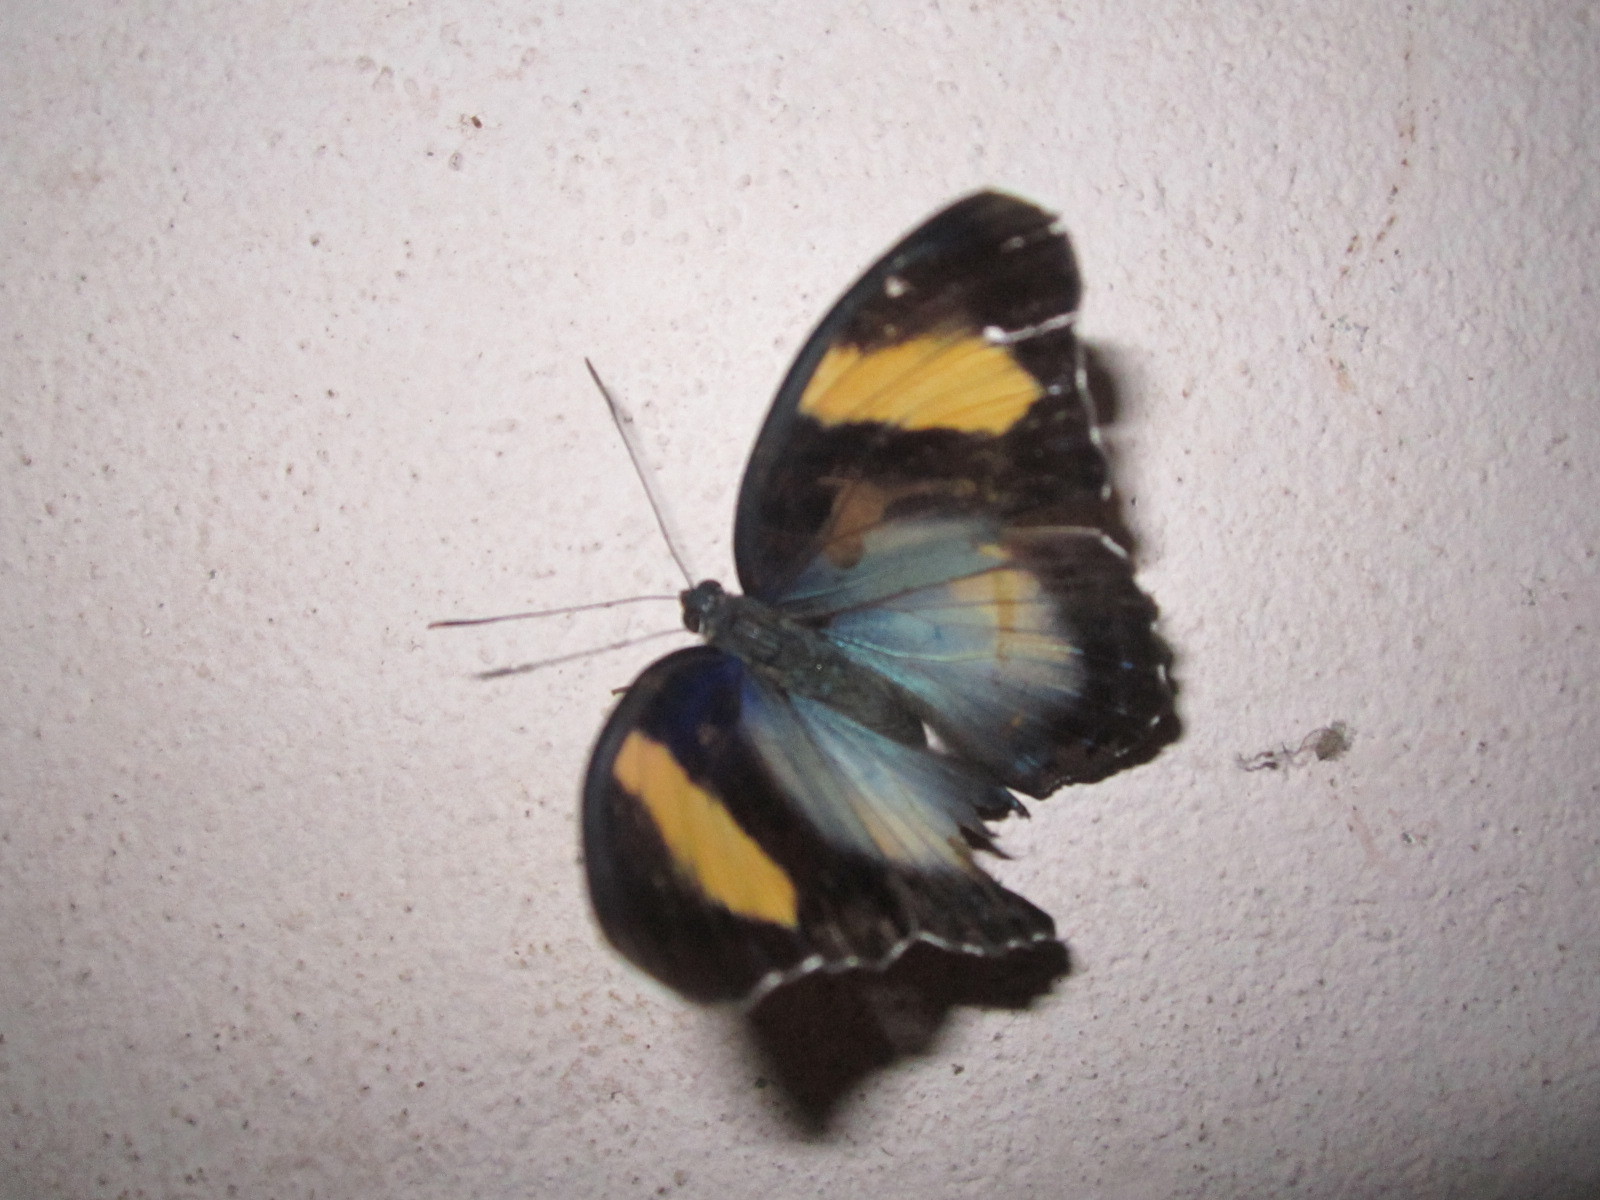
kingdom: Animalia
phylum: Arthropoda
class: Insecta
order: Lepidoptera
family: Nymphalidae
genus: Euphaedra
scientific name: Euphaedra themis
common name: Themis forester
